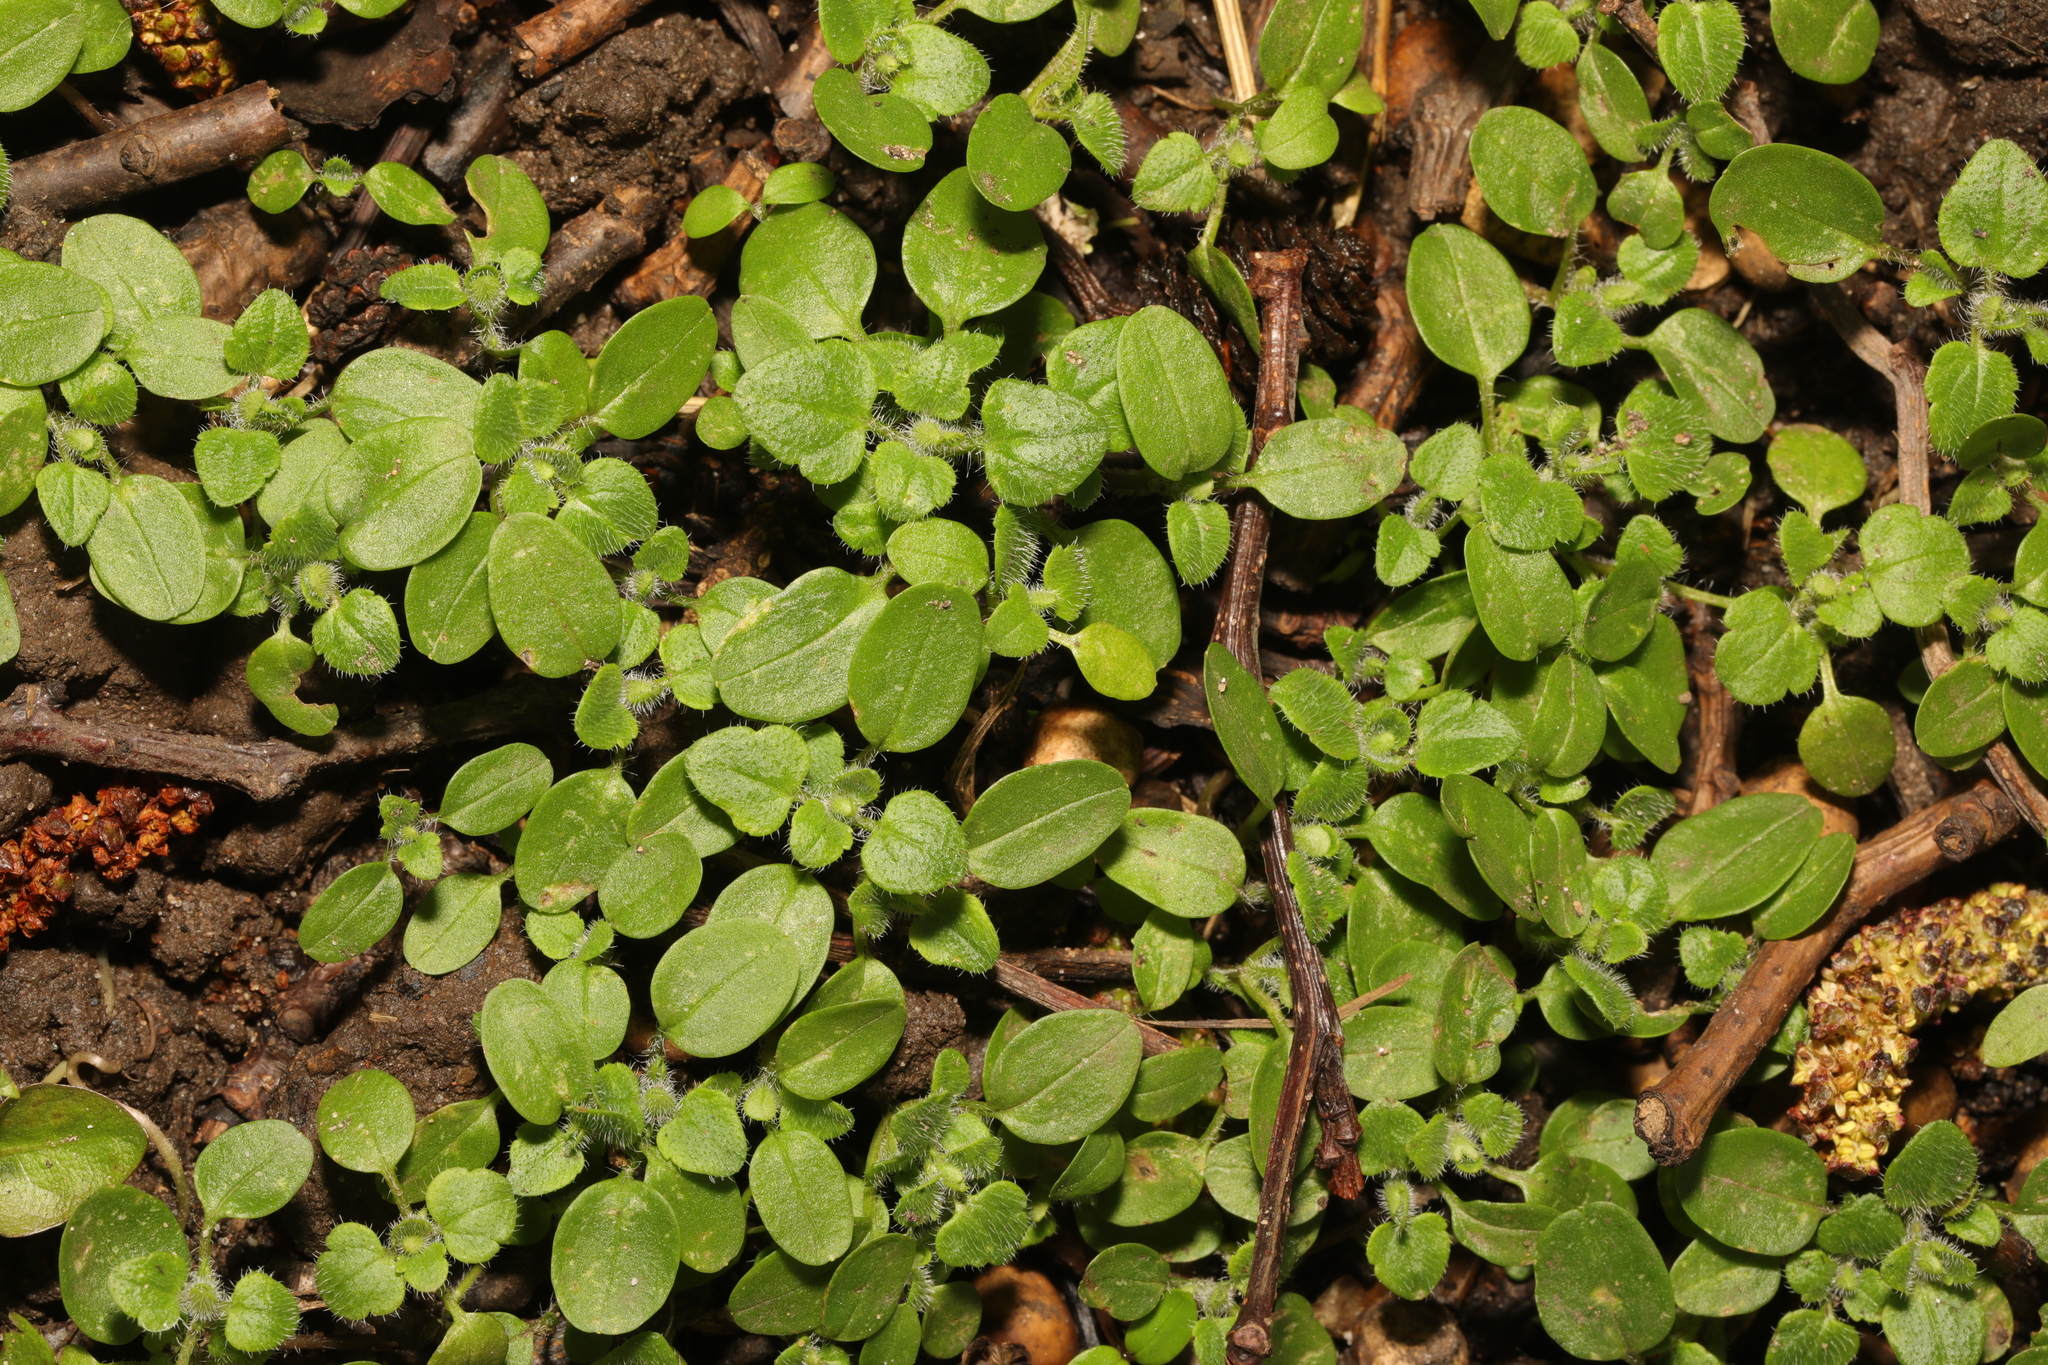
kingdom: Plantae
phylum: Tracheophyta
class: Magnoliopsida
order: Lamiales
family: Plantaginaceae
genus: Veronica
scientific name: Veronica
